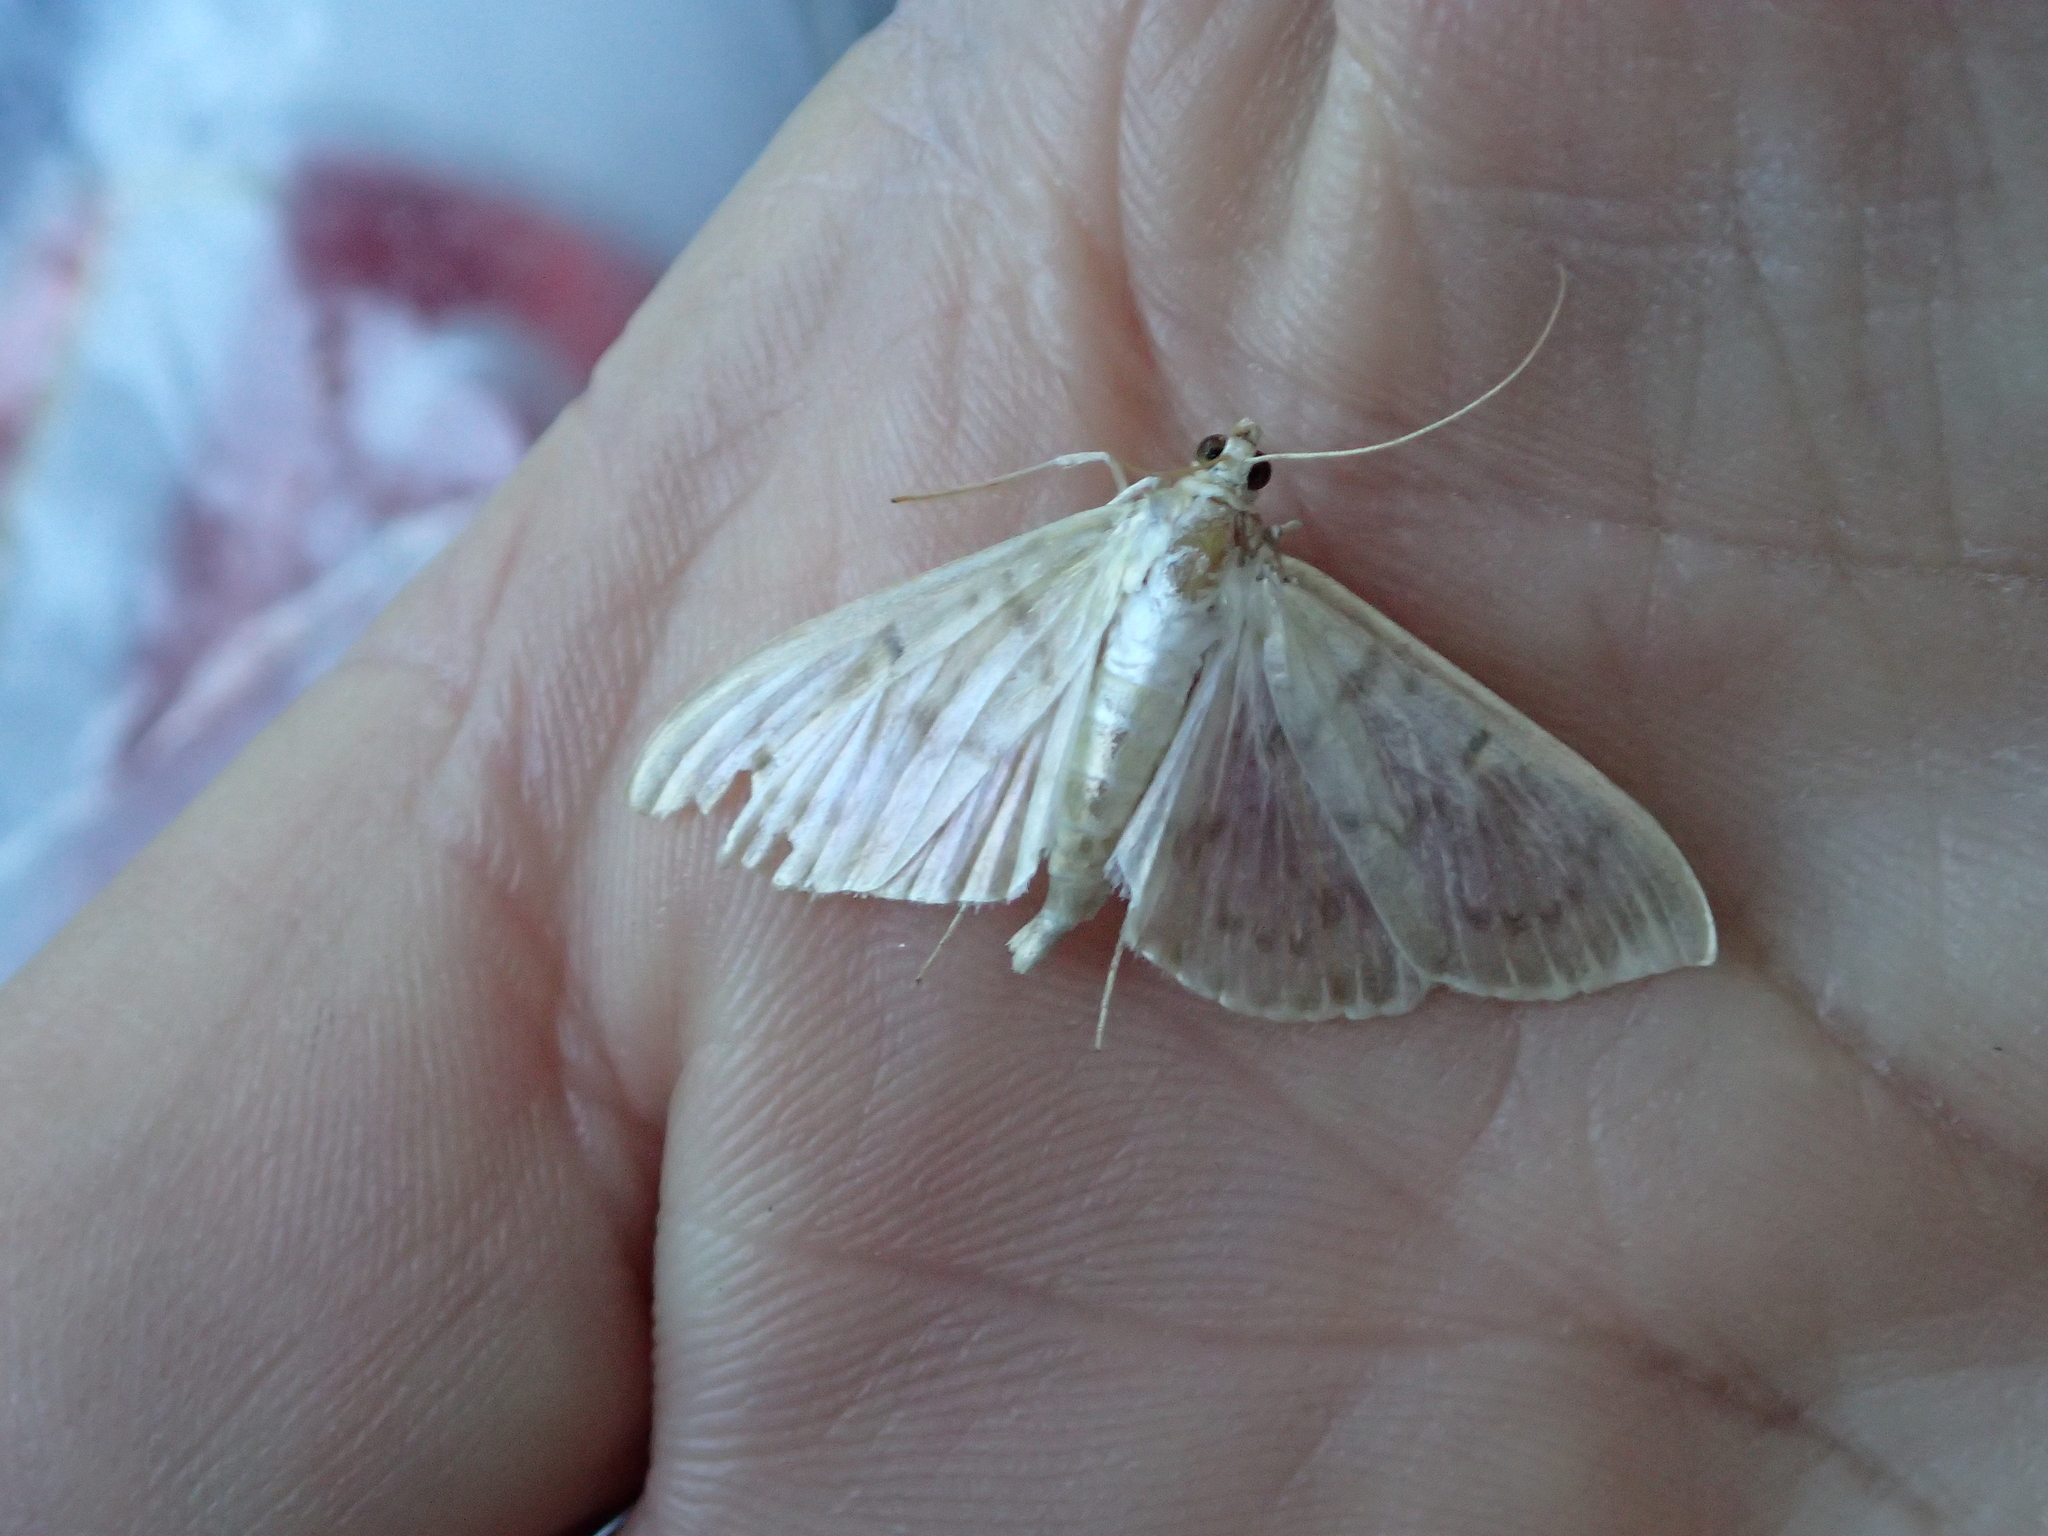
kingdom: Animalia
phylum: Arthropoda
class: Insecta
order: Lepidoptera
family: Crambidae
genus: Patania
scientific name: Patania ruralis
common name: Mother of pearl
